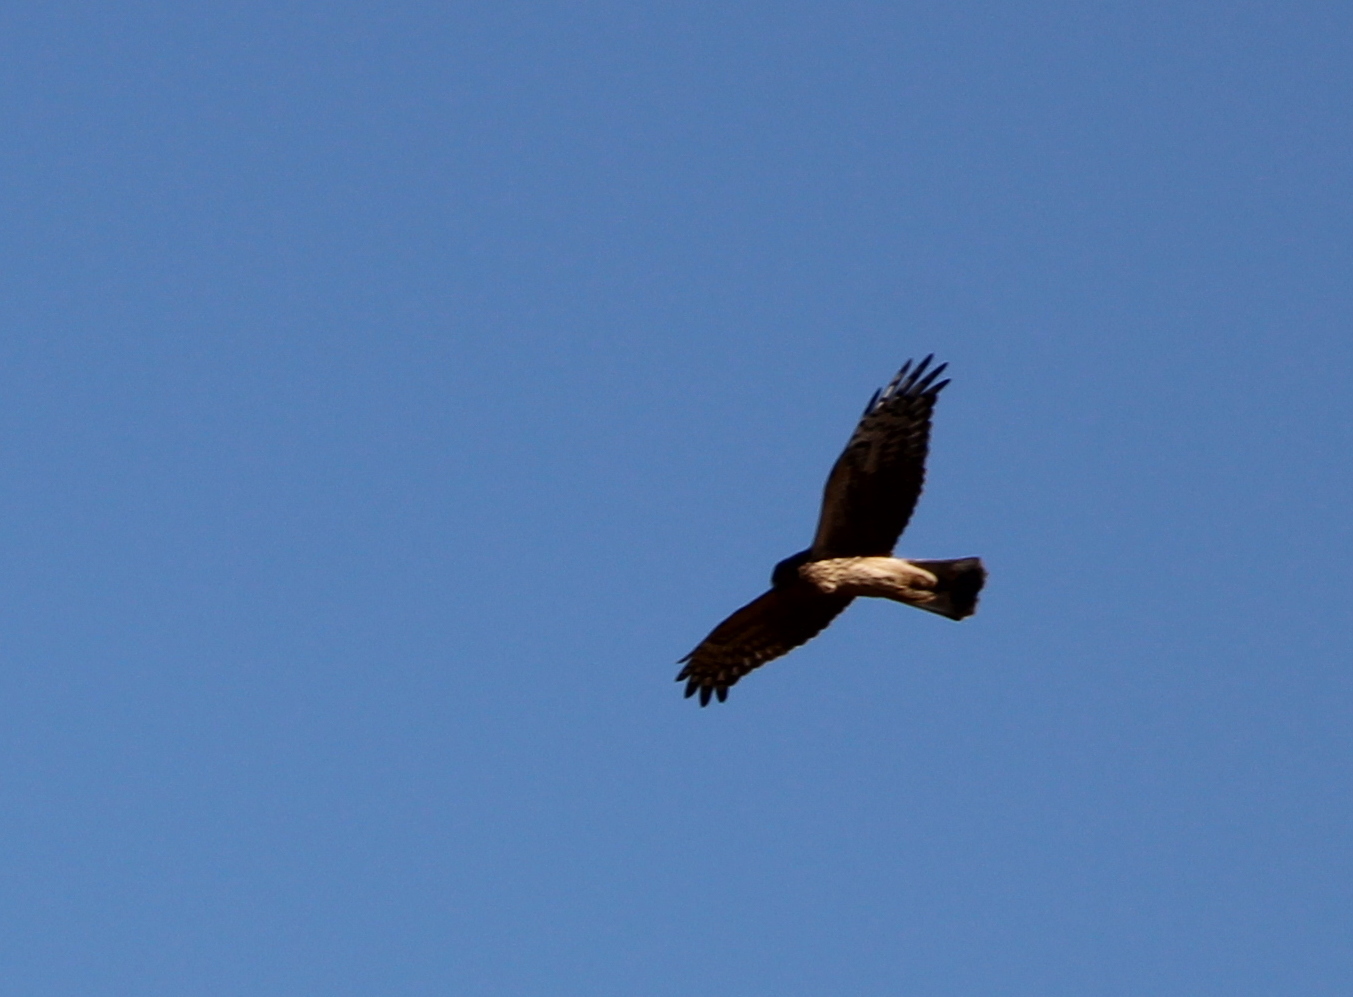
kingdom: Animalia
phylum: Chordata
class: Aves
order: Accipitriformes
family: Accipitridae
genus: Circus
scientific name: Circus cyaneus
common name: Hen harrier
